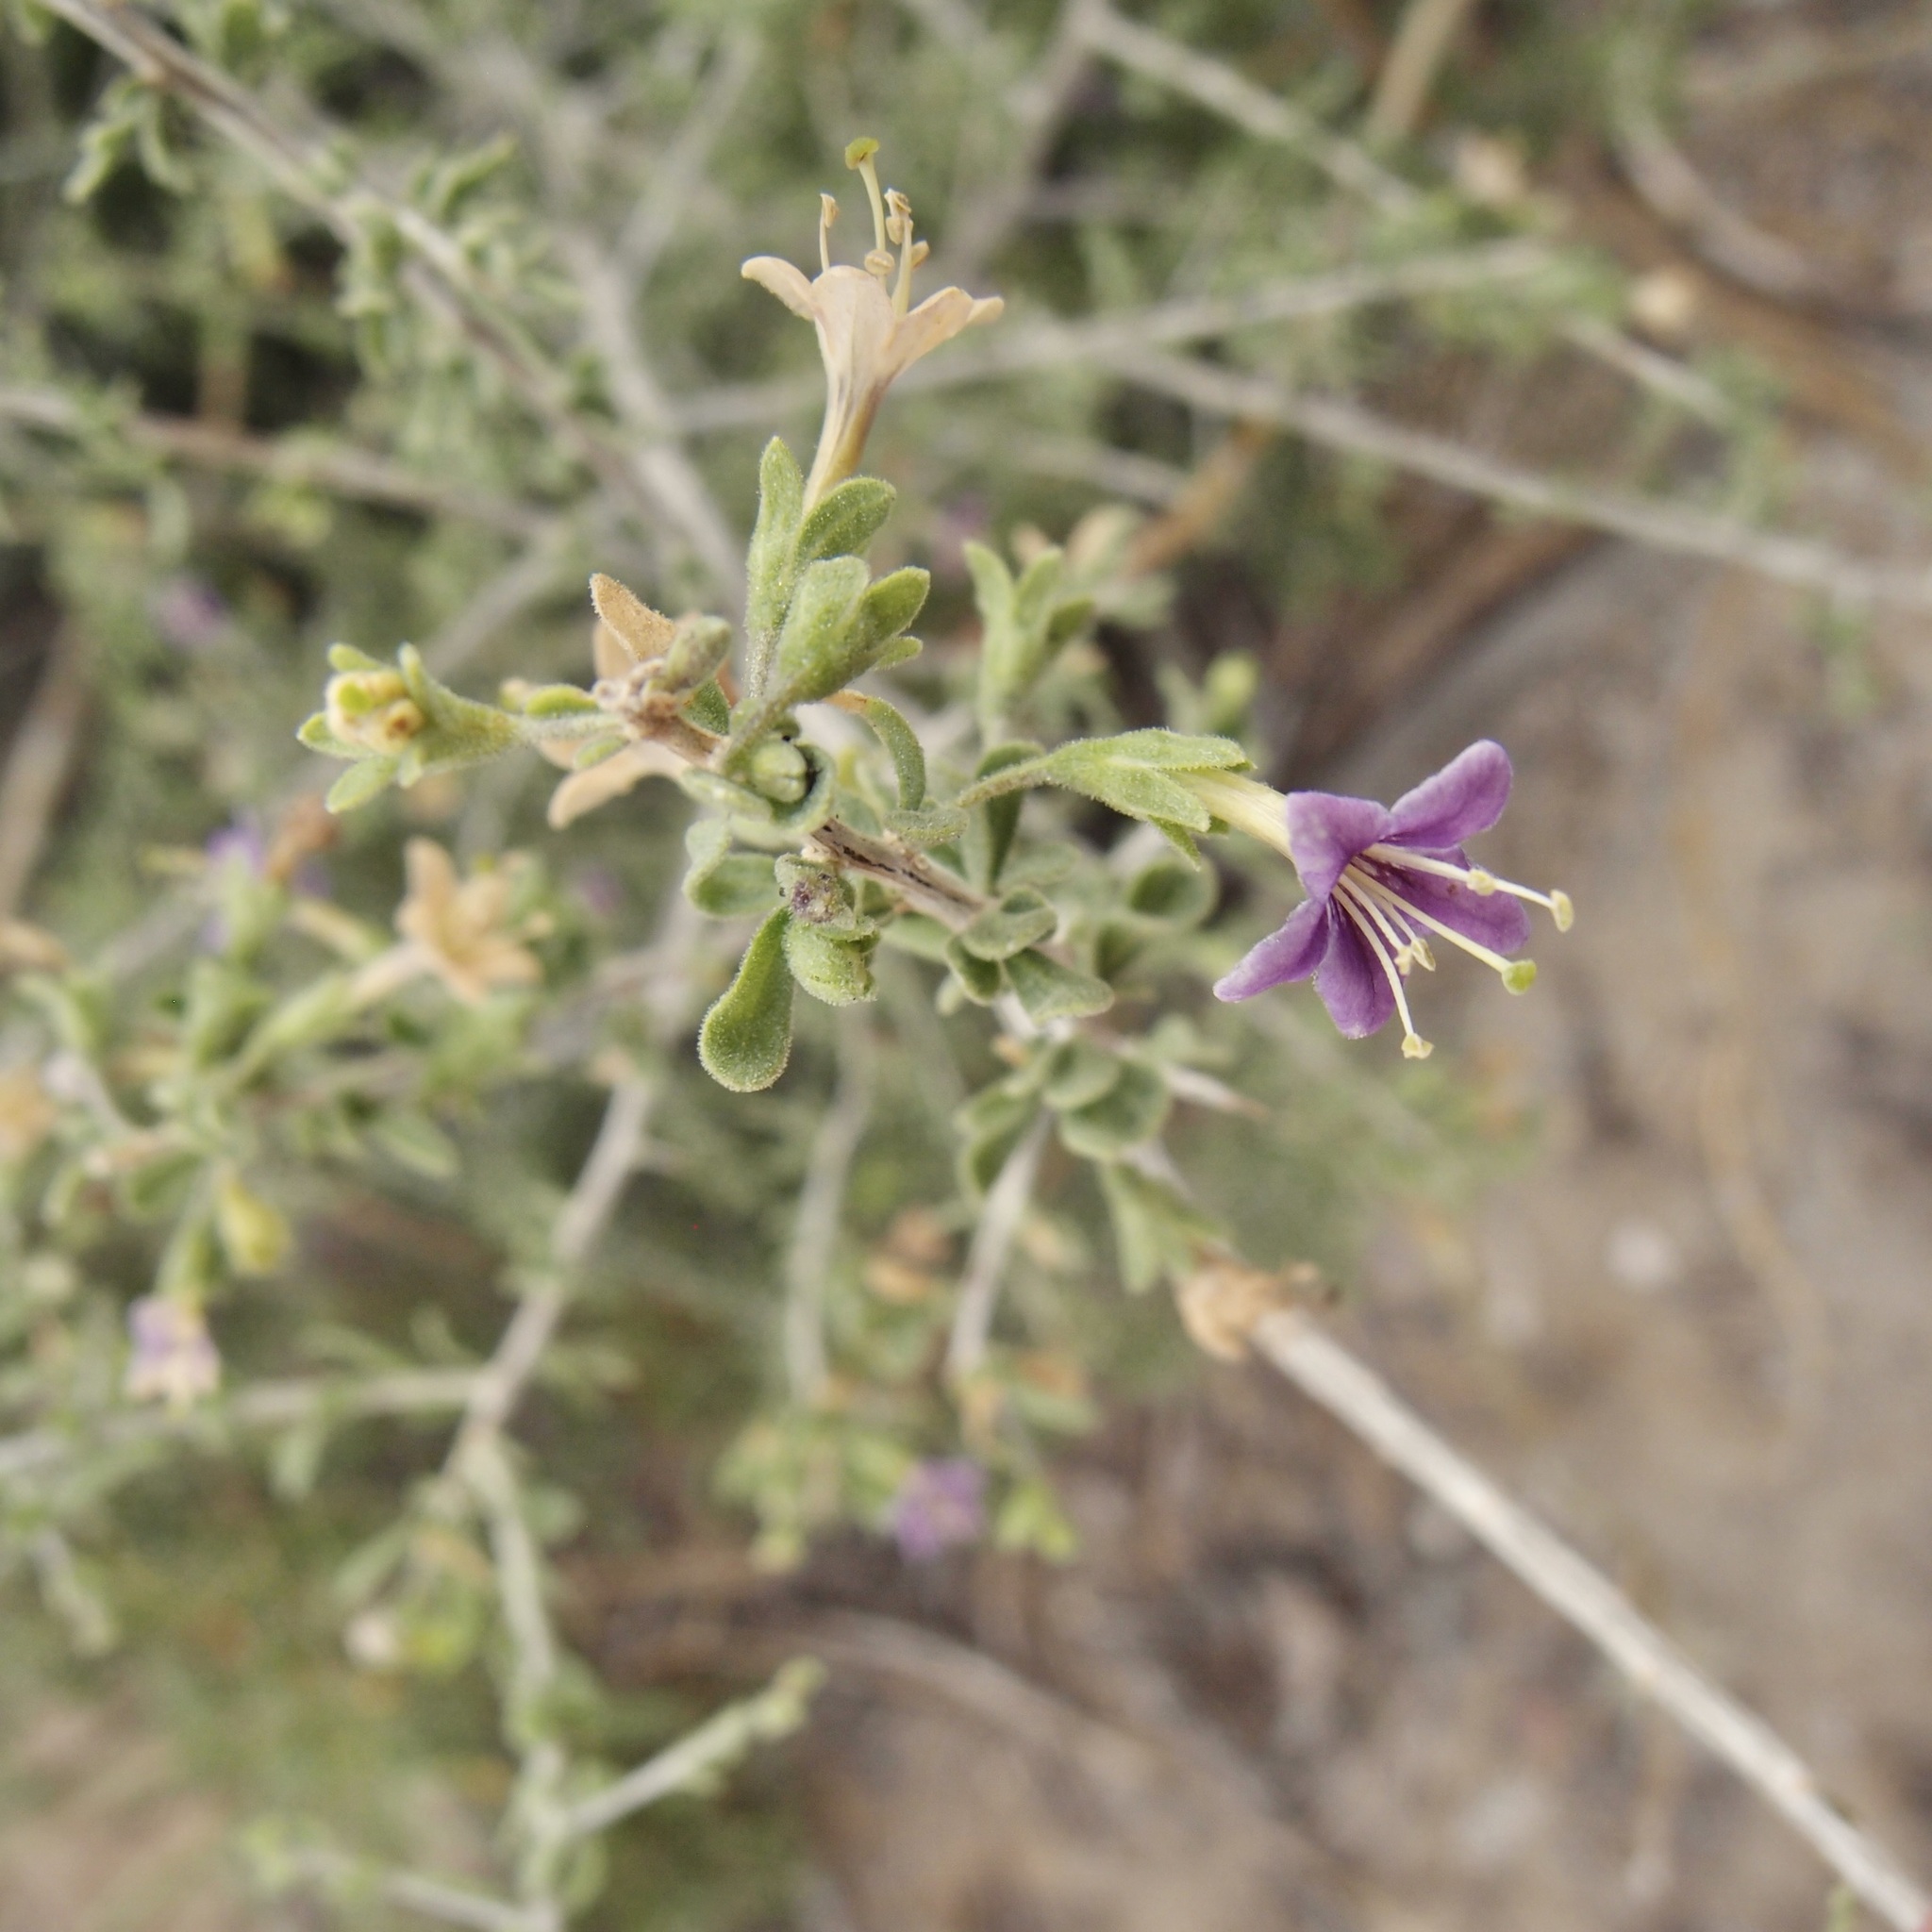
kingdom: Plantae
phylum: Tracheophyta
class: Magnoliopsida
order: Solanales
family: Solanaceae
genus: Lycium
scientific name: Lycium parishii
